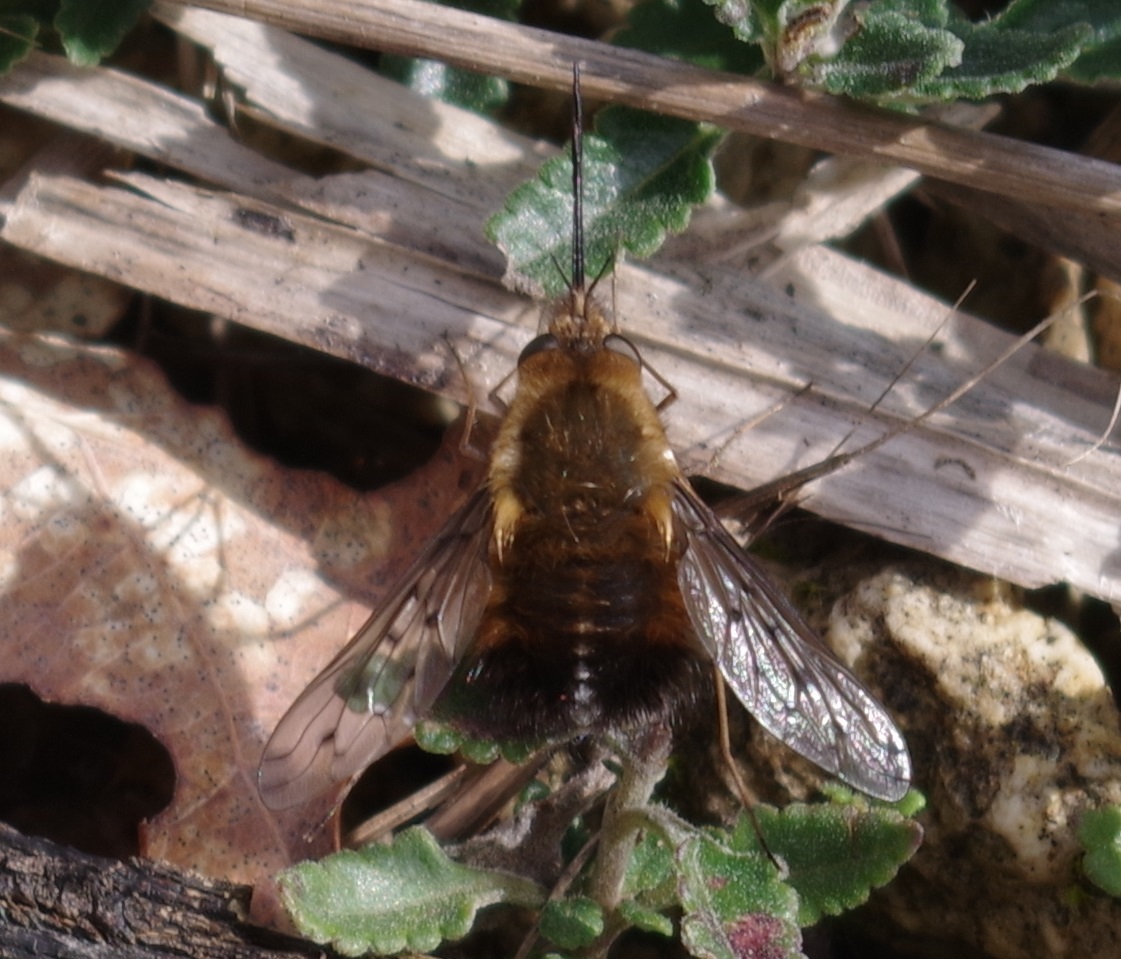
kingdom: Animalia
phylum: Arthropoda
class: Insecta
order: Diptera
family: Bombyliidae
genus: Bombylius
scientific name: Bombylius discolor
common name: Dotted bee-fly
